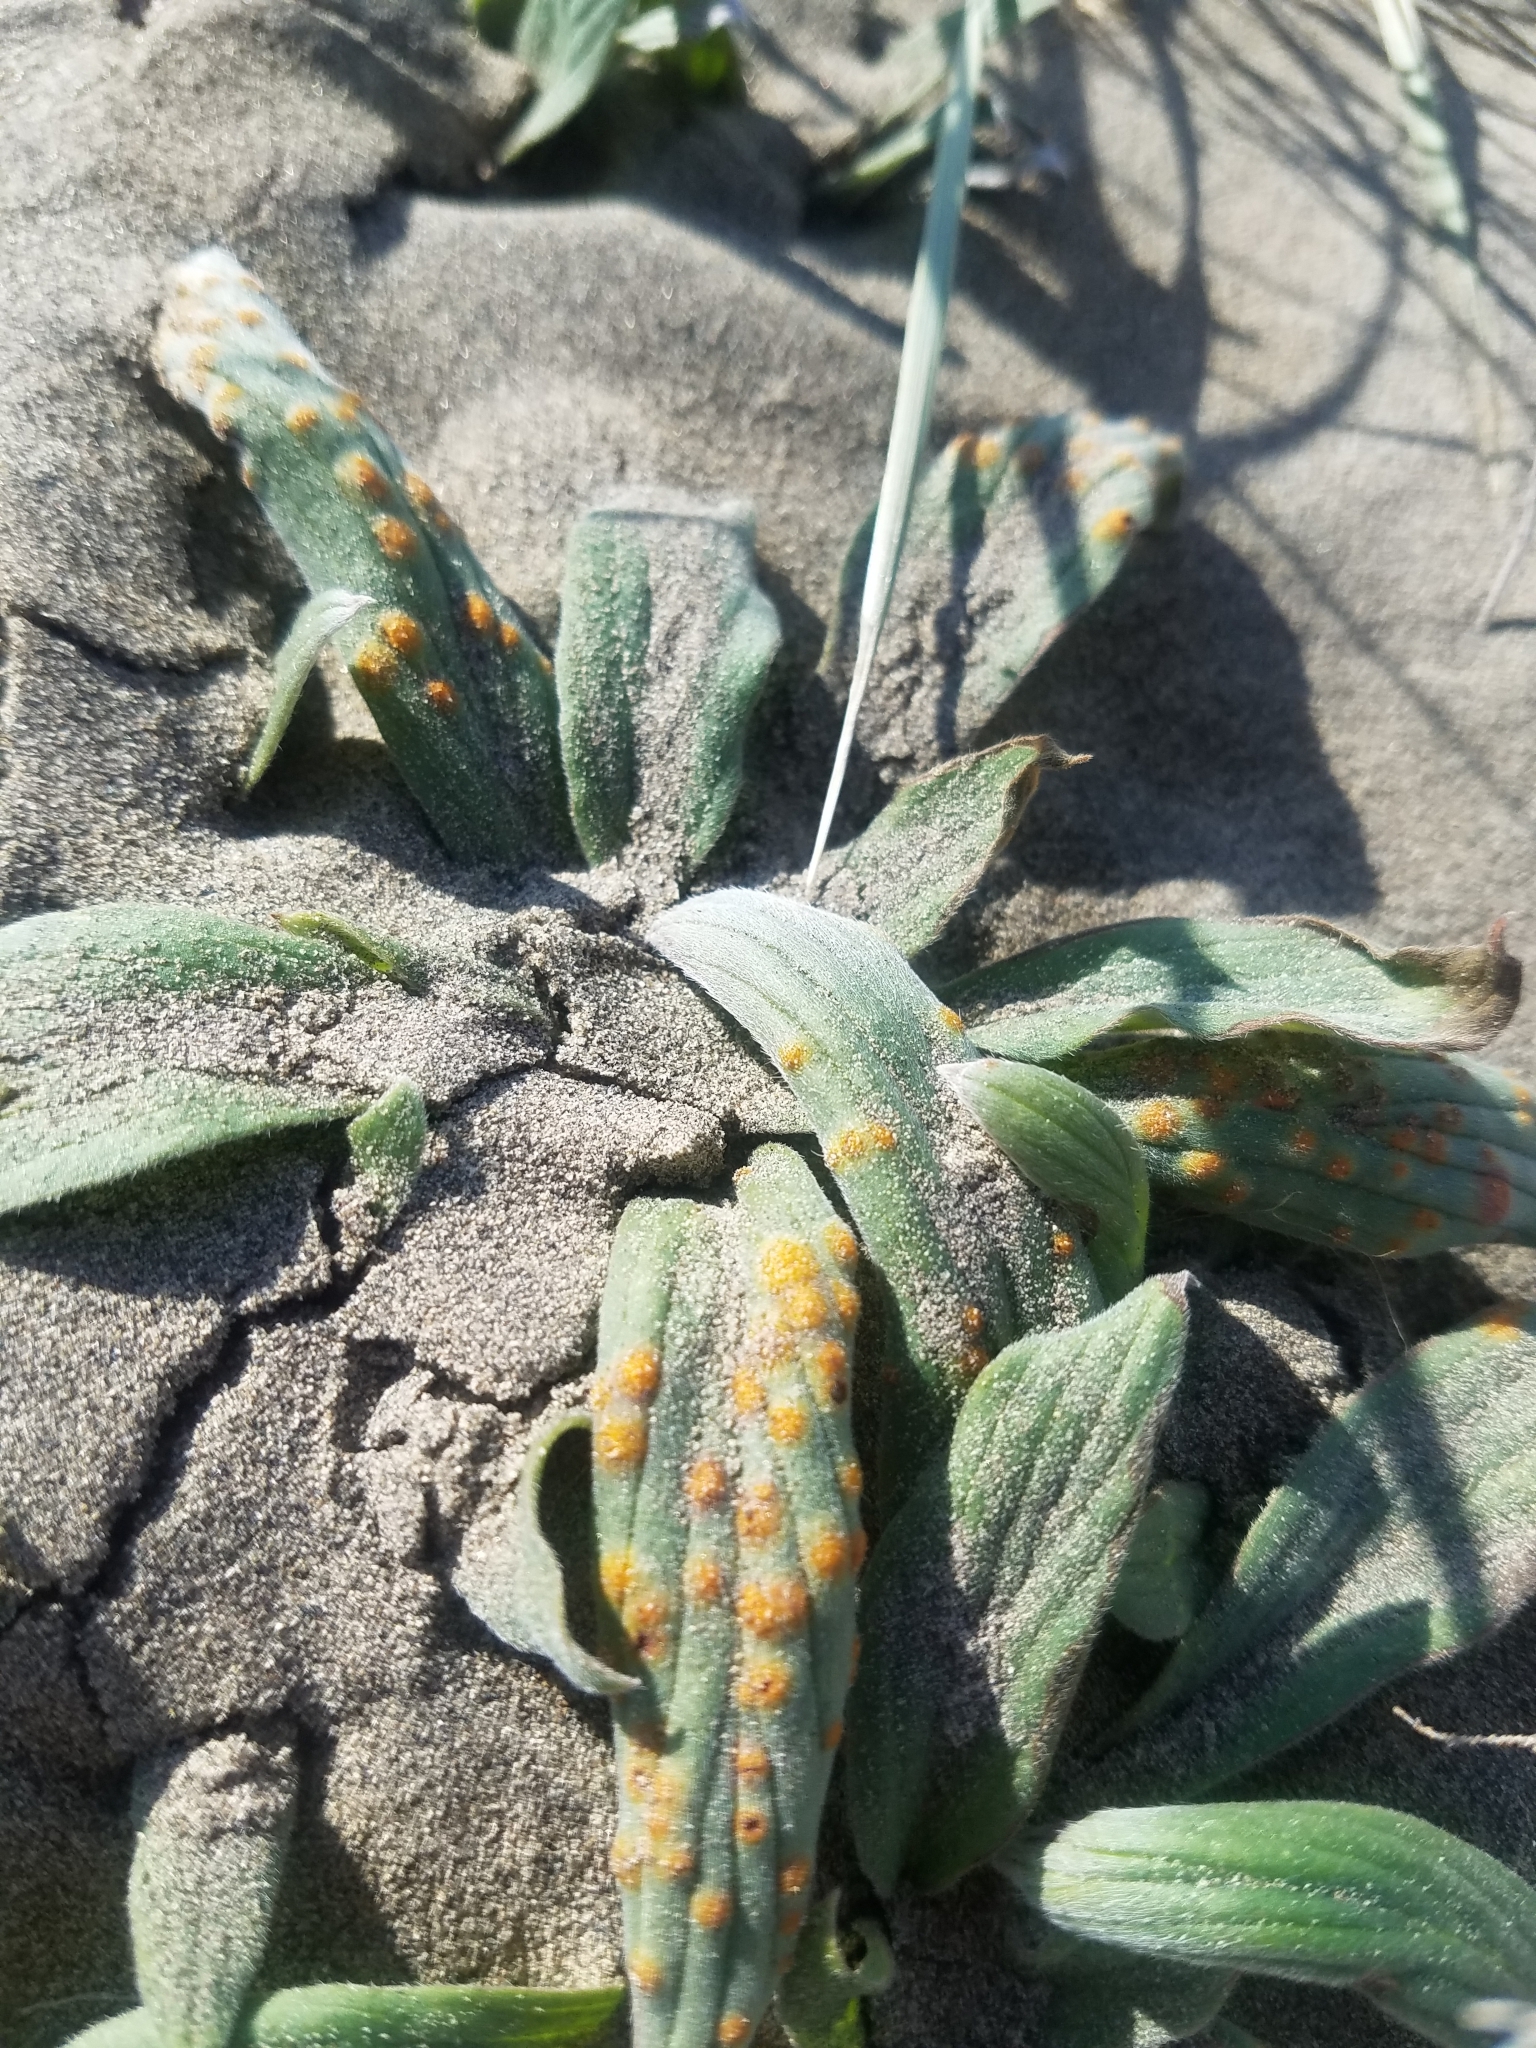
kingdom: Plantae
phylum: Tracheophyta
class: Magnoliopsida
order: Boraginales
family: Hydrophyllaceae
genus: Phacelia
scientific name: Phacelia hastata
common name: Silver-leaved phacelia
